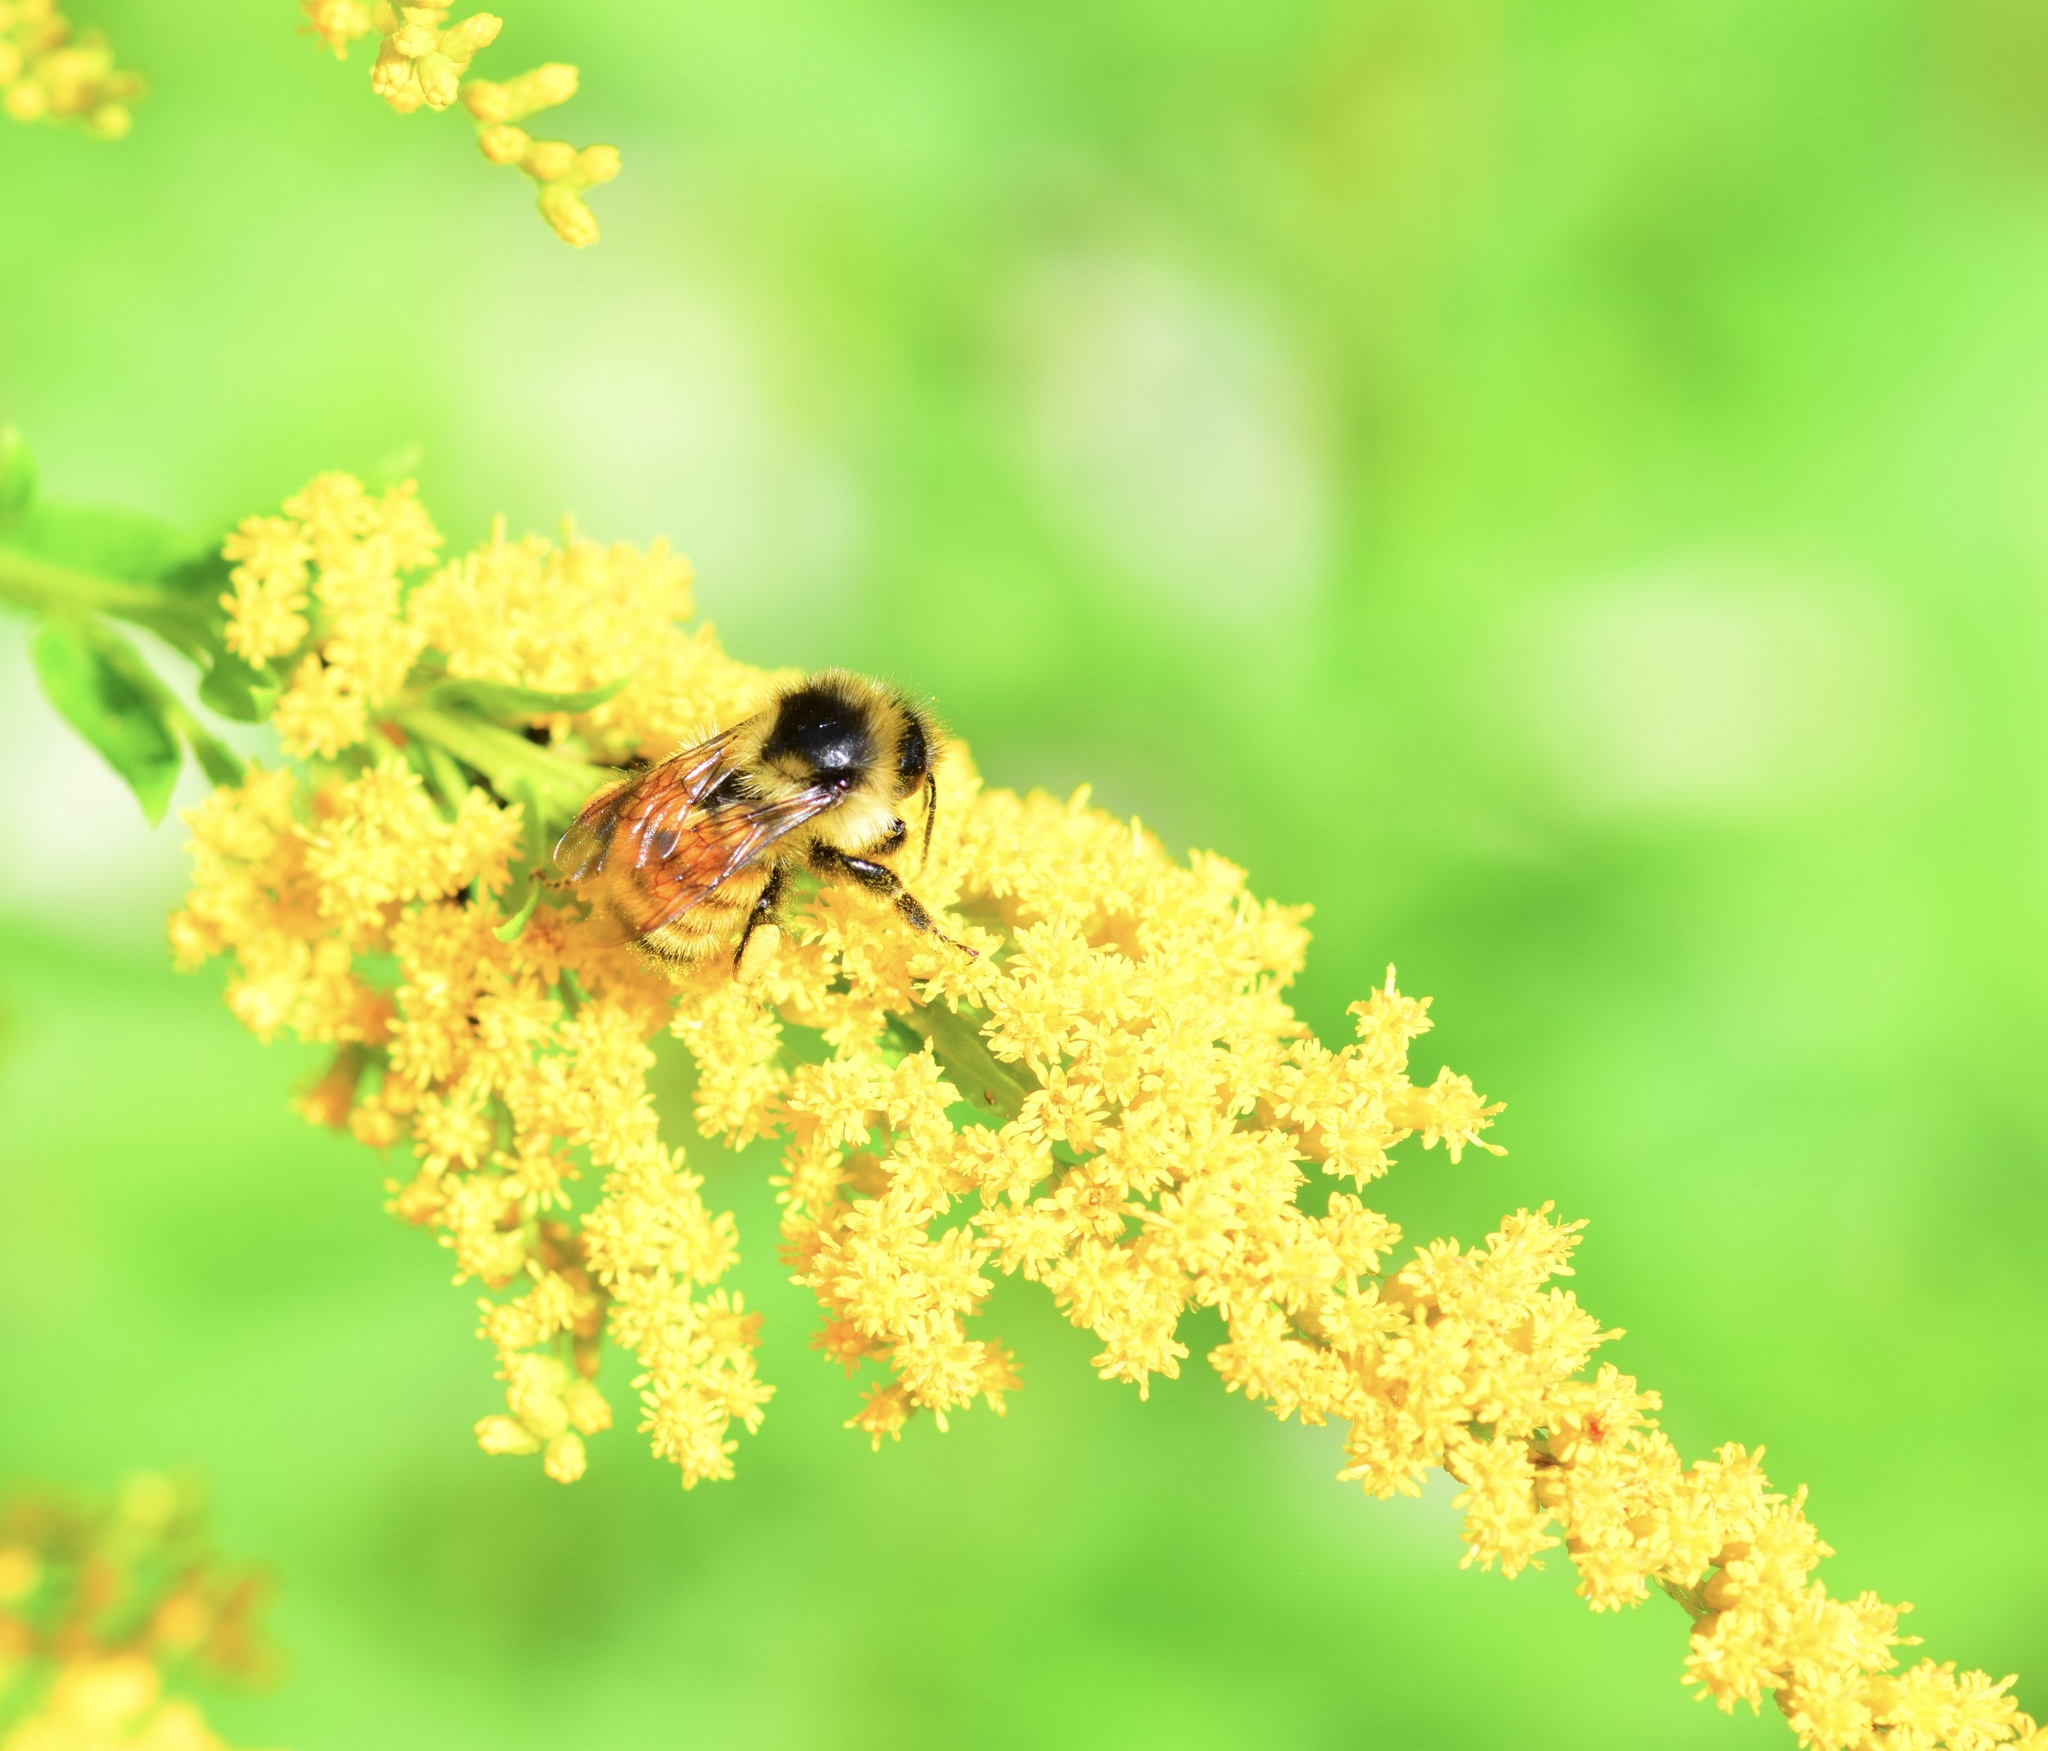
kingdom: Animalia
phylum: Arthropoda
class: Insecta
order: Hymenoptera
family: Apidae
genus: Bombus
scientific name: Bombus ternarius
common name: Tri-colored bumble bee
